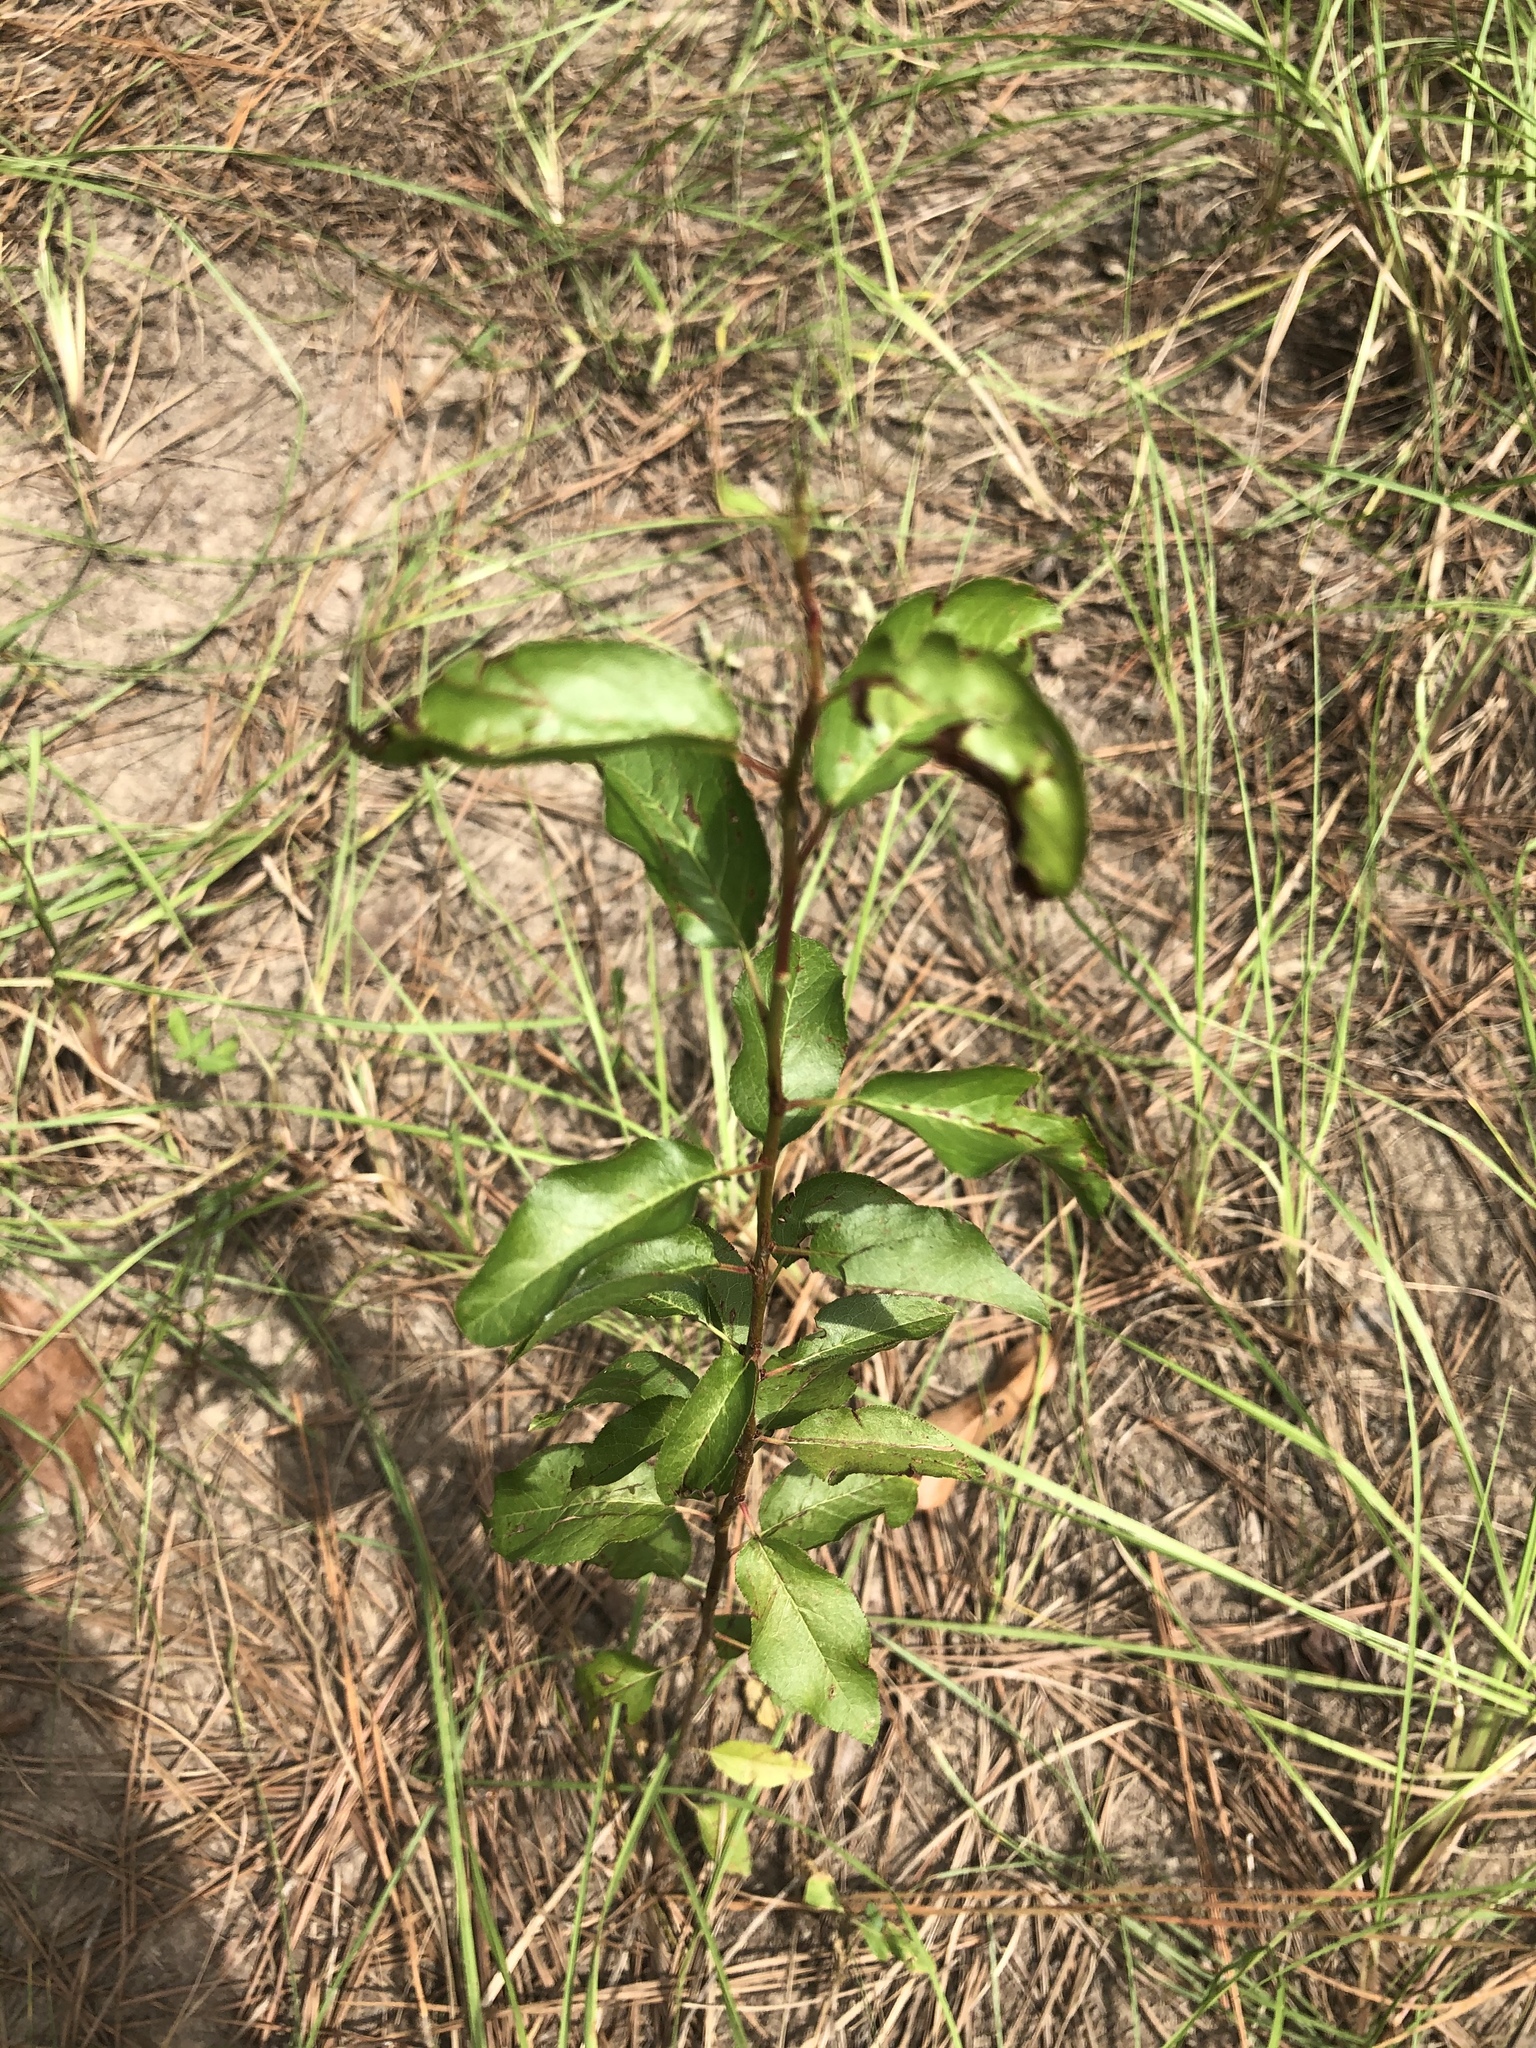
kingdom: Plantae
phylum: Tracheophyta
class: Magnoliopsida
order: Rosales
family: Rosaceae
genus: Prunus
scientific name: Prunus angustifolia
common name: Cherokee plum
